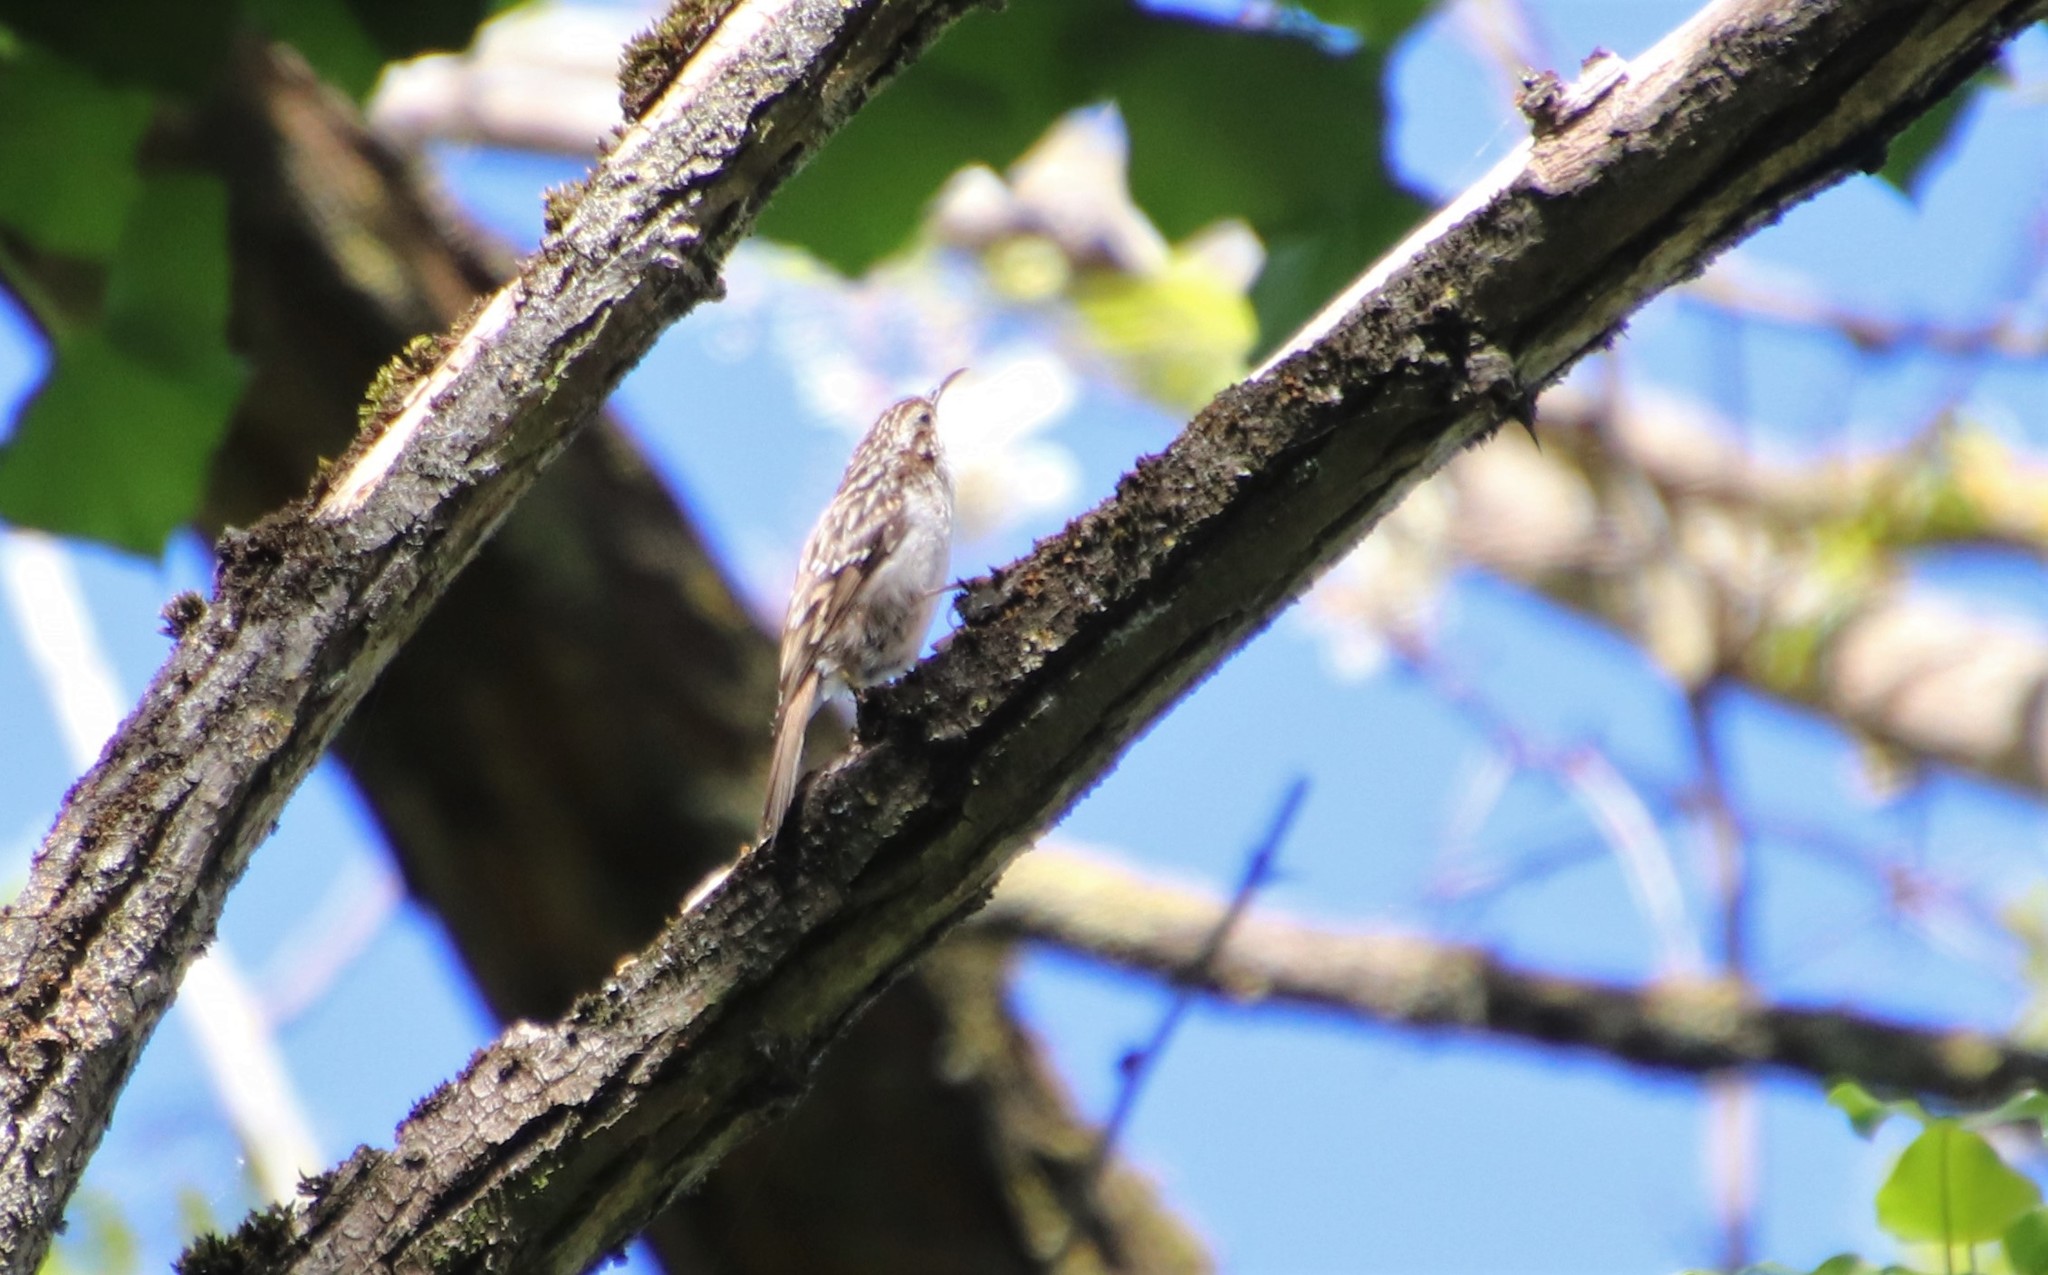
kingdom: Animalia
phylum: Chordata
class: Aves
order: Passeriformes
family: Certhiidae
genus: Certhia
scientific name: Certhia brachydactyla
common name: Short-toed treecreeper
